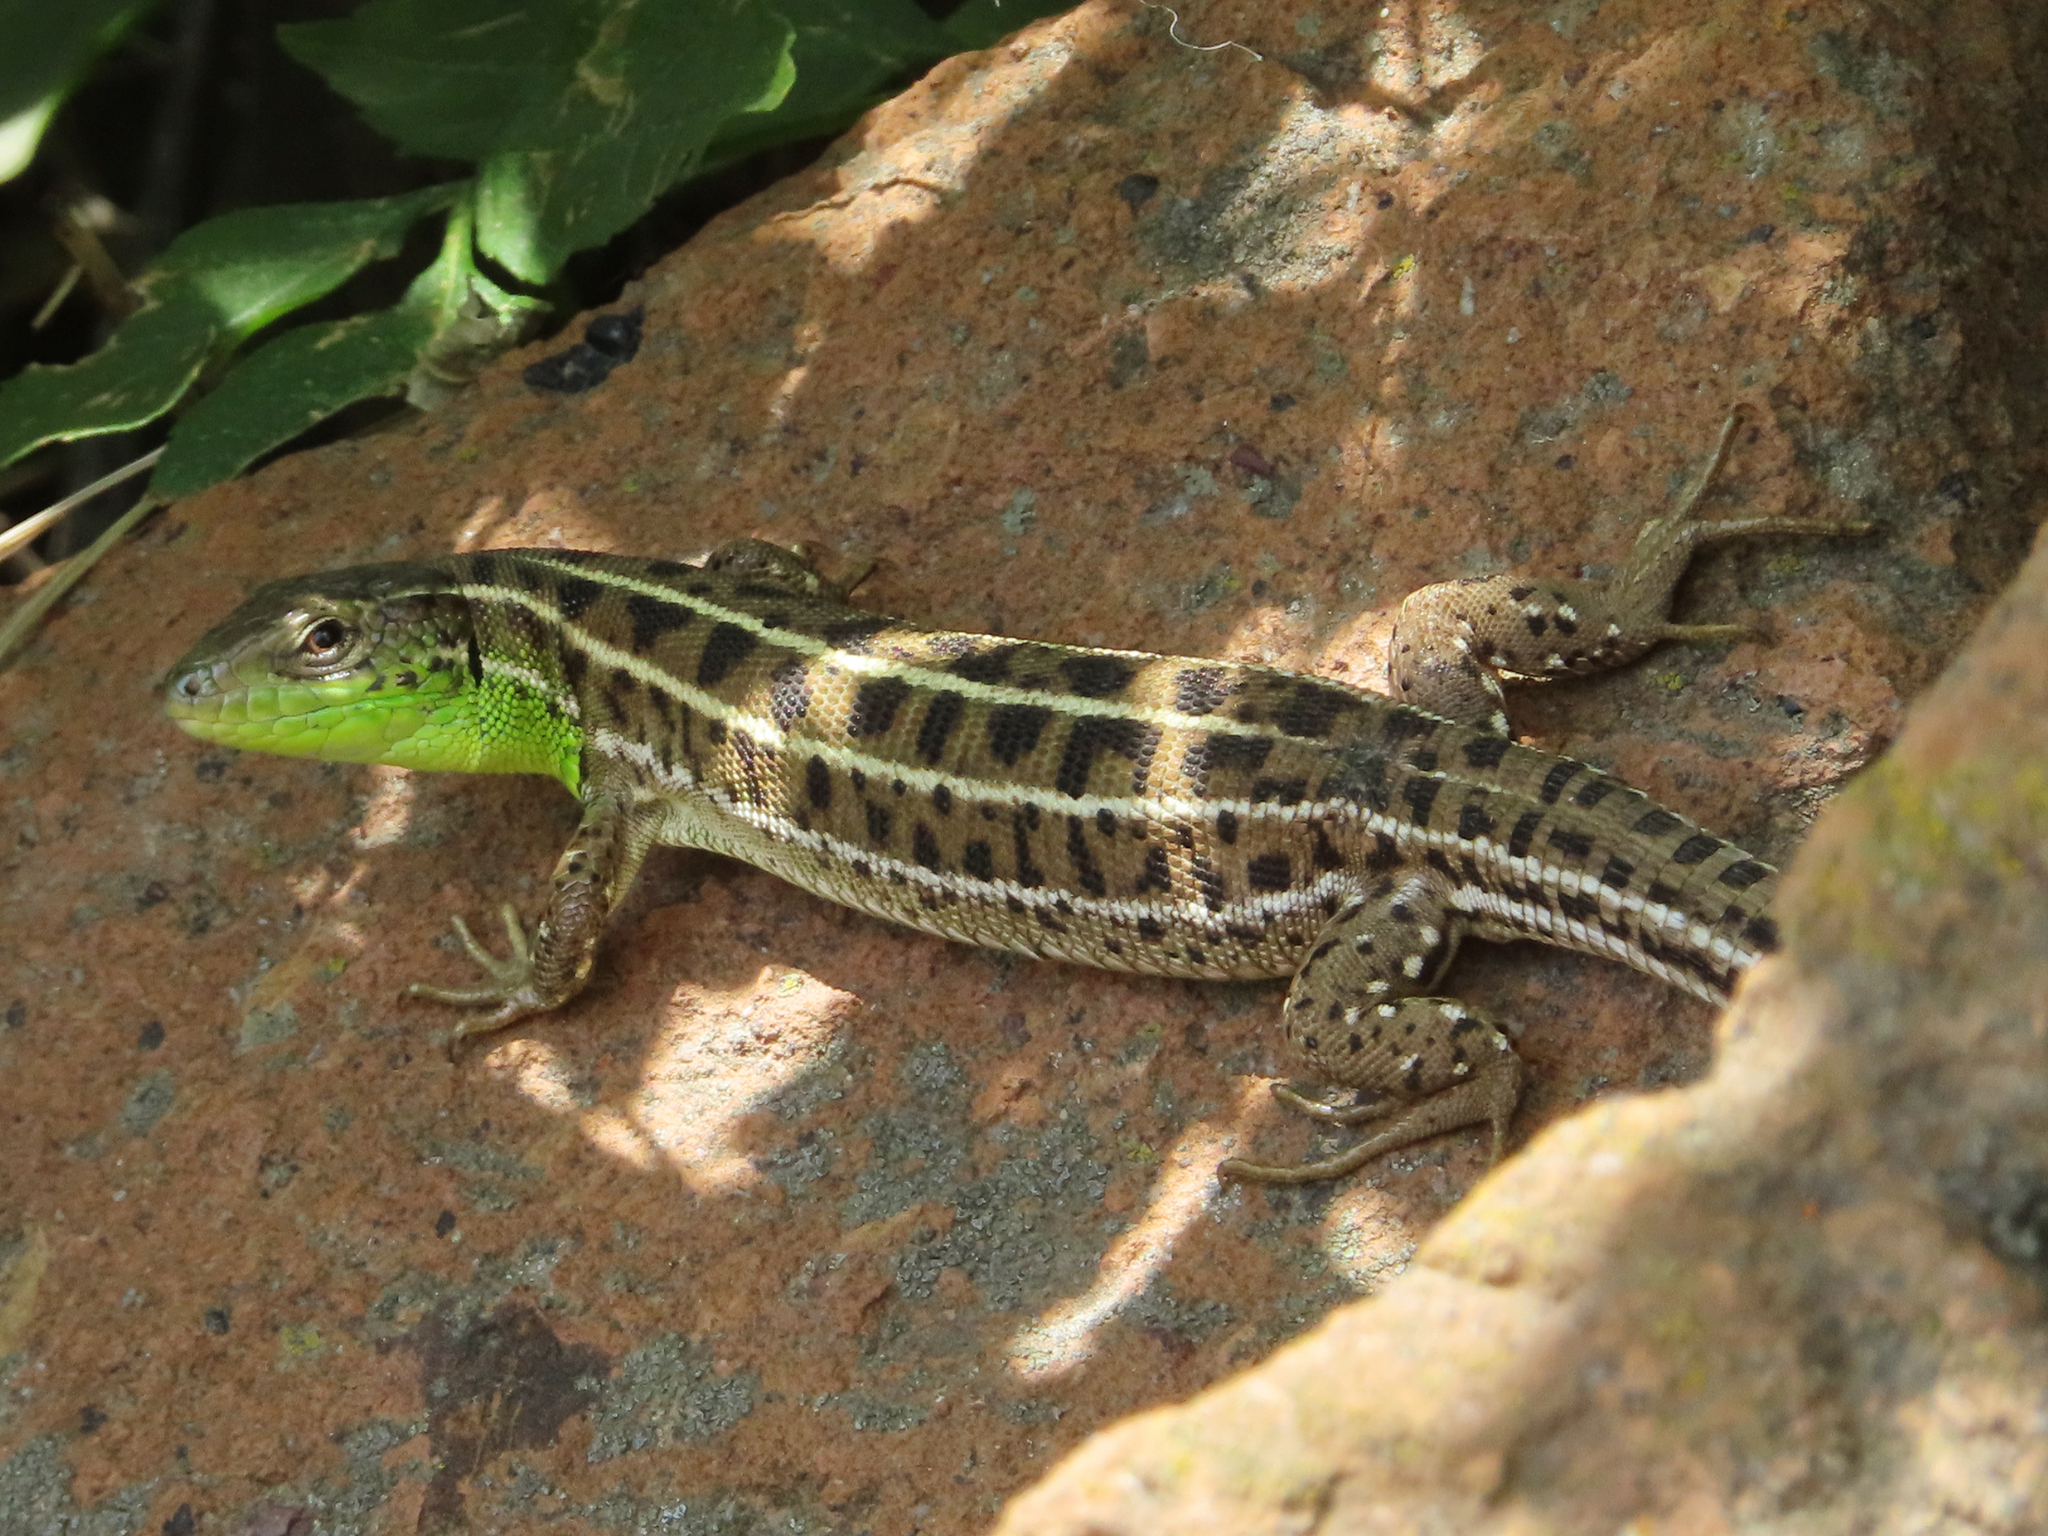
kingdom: Animalia
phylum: Chordata
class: Squamata
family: Lacertidae
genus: Lacerta
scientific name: Lacerta strigata
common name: Caspian green lizard
